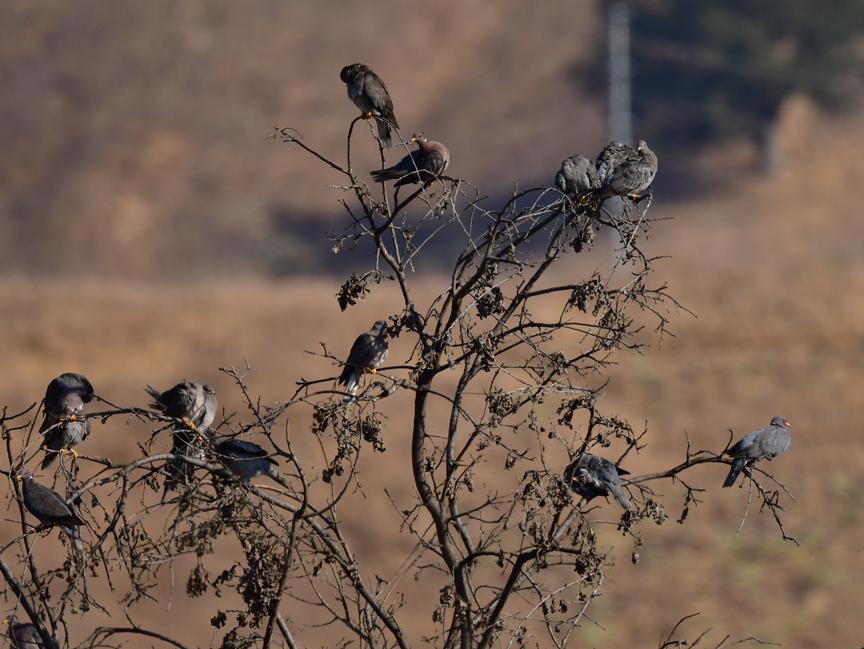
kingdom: Animalia
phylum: Chordata
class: Aves
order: Columbiformes
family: Columbidae
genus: Patagioenas
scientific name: Patagioenas fasciata
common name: Band-tailed pigeon
